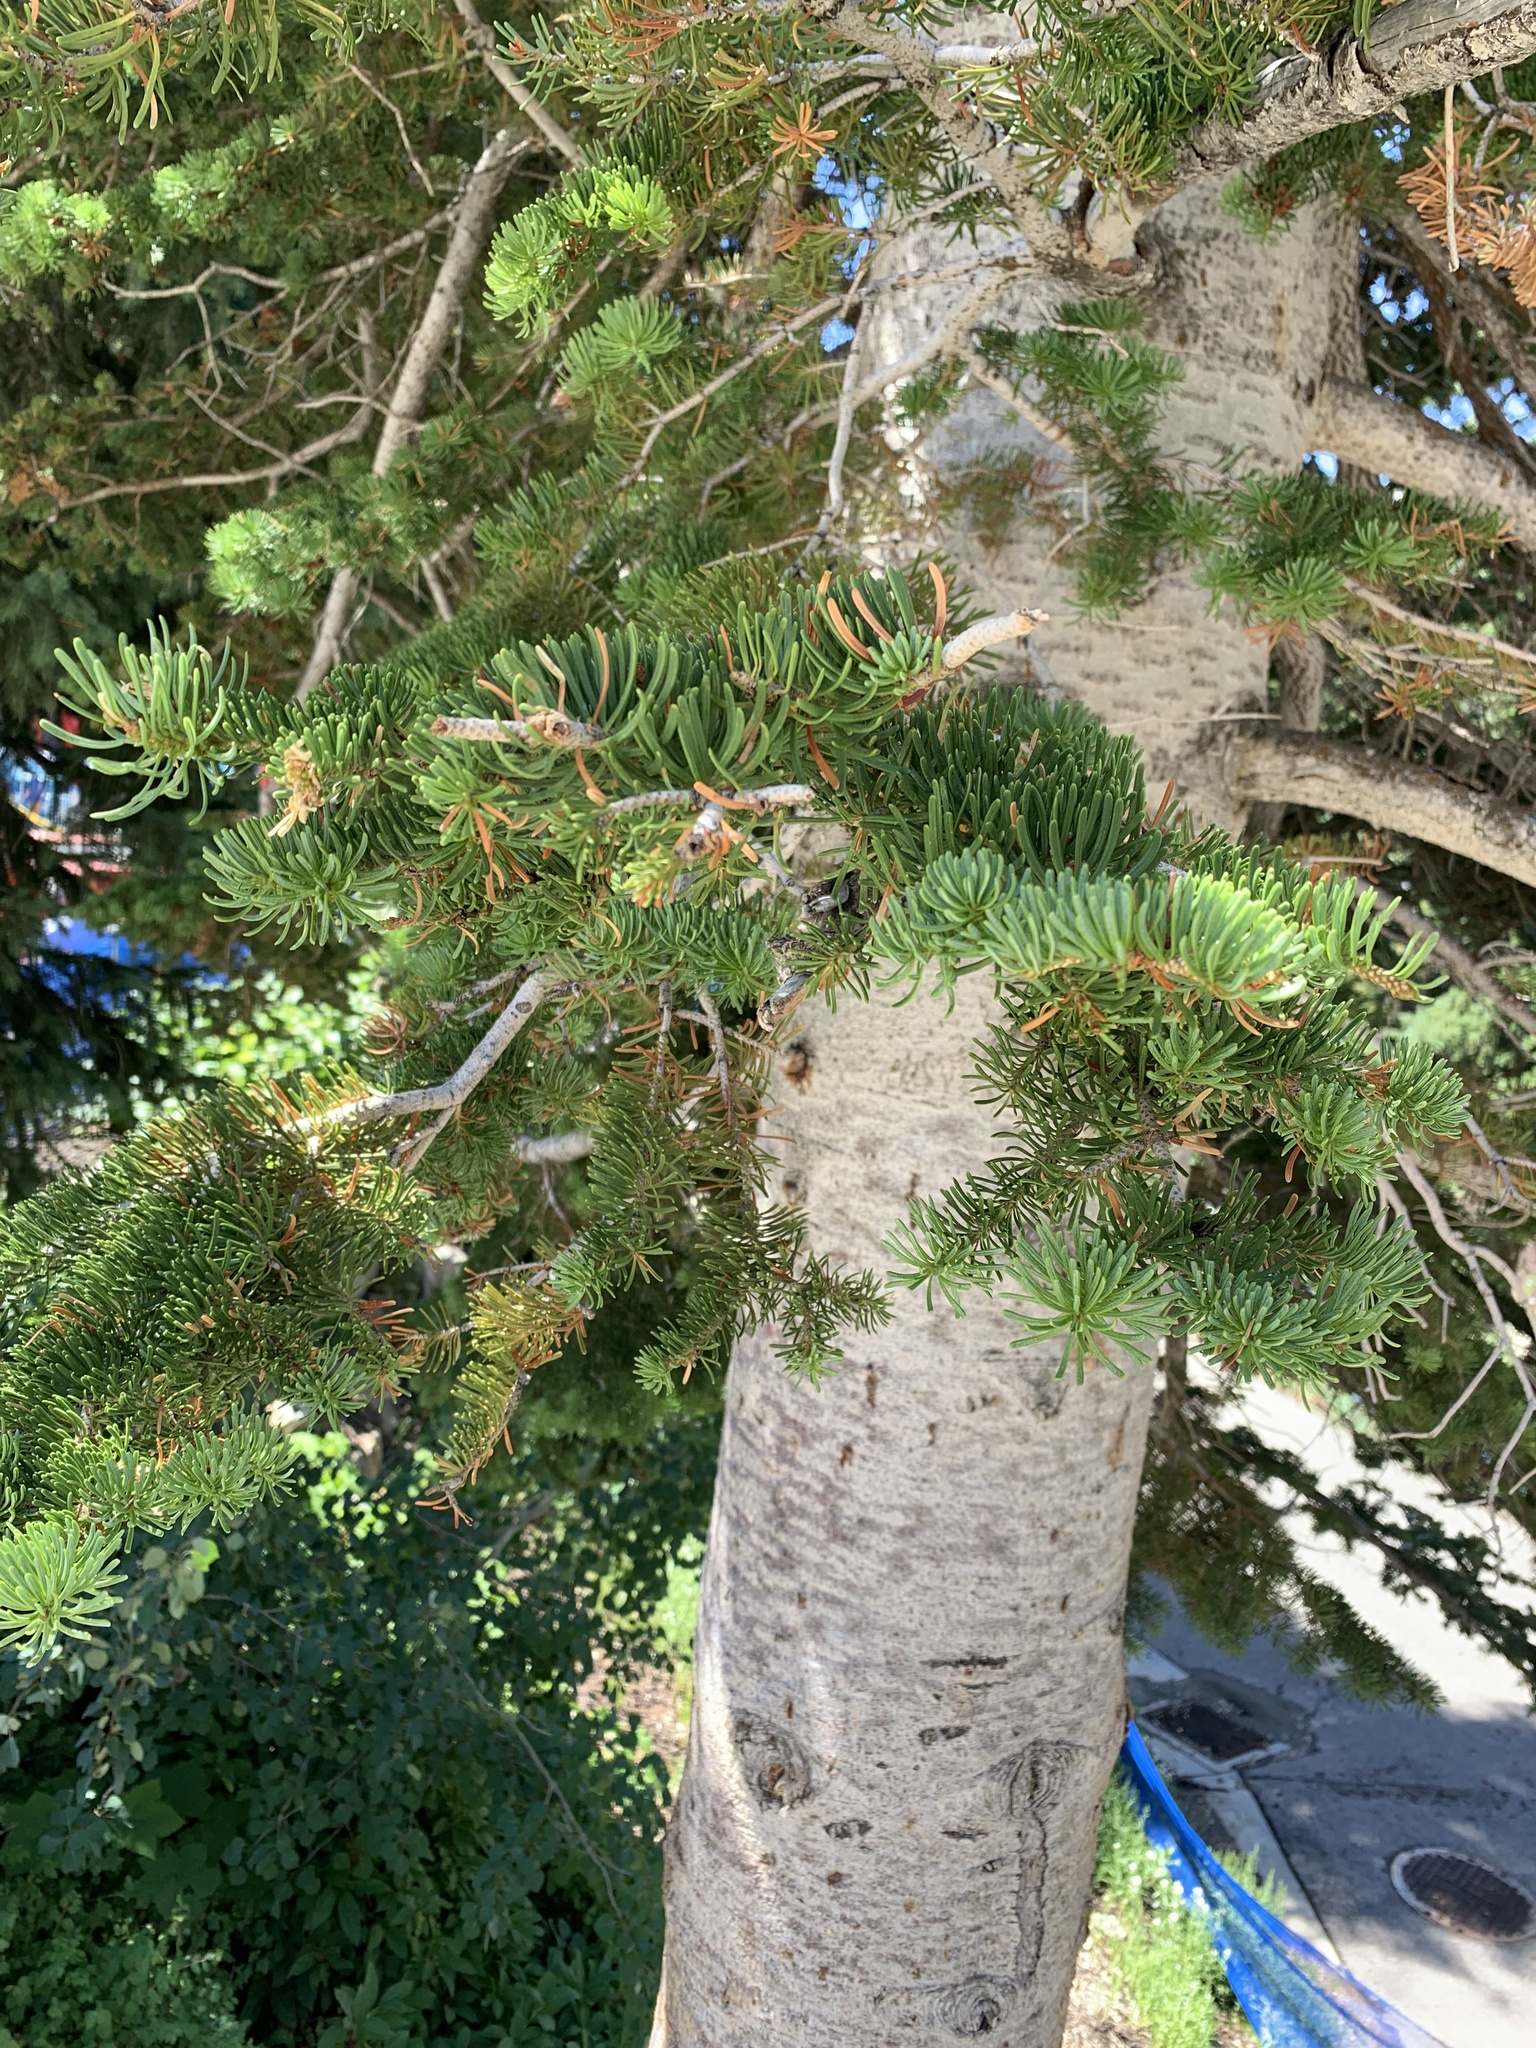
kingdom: Plantae
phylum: Tracheophyta
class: Pinopsida
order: Pinales
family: Pinaceae
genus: Abies
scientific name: Abies lasiocarpa
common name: Subalpine fir
